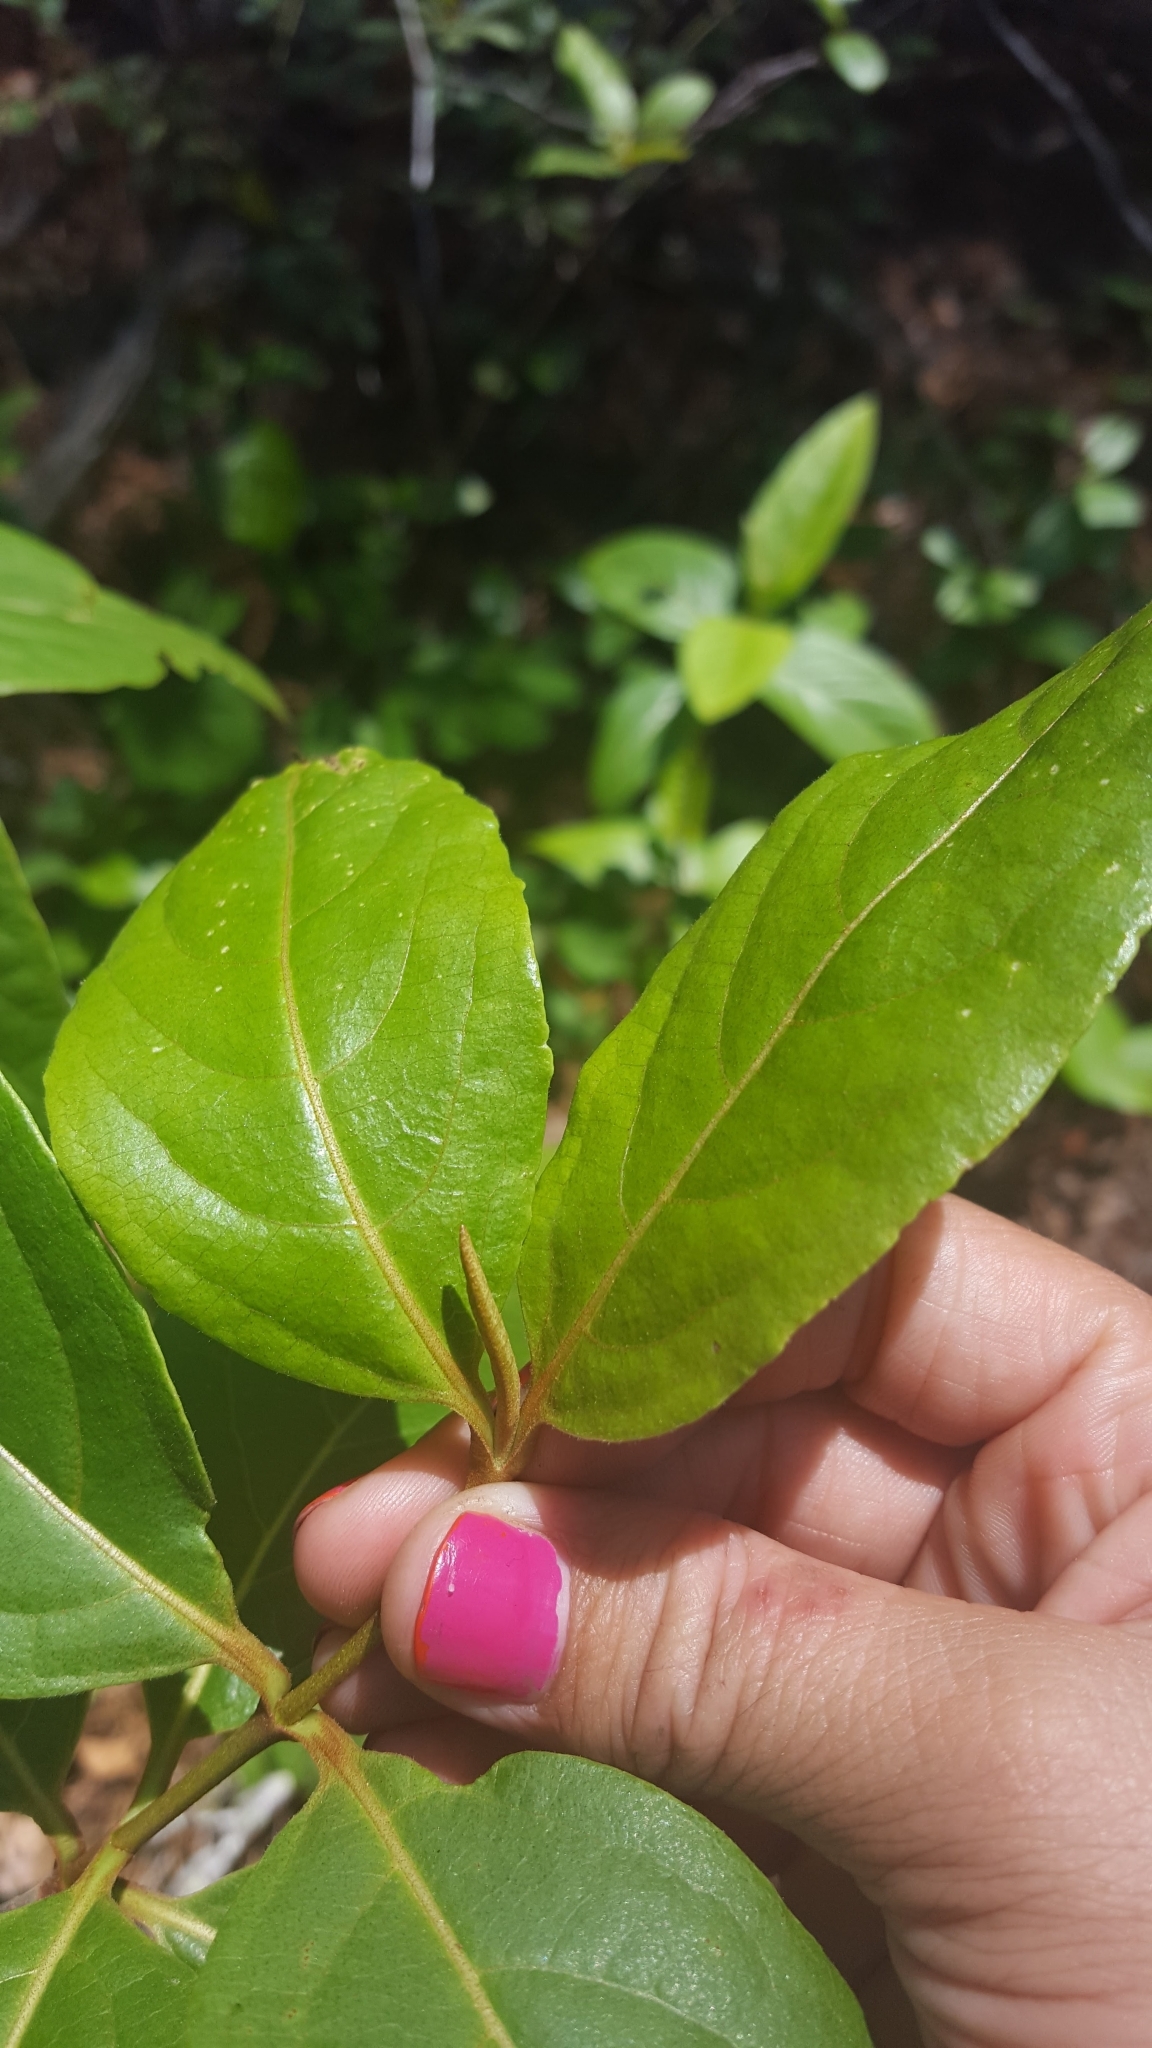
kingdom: Plantae
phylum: Tracheophyta
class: Magnoliopsida
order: Dipsacales
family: Viburnaceae
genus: Viburnum
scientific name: Viburnum nudum
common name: Possum haw
